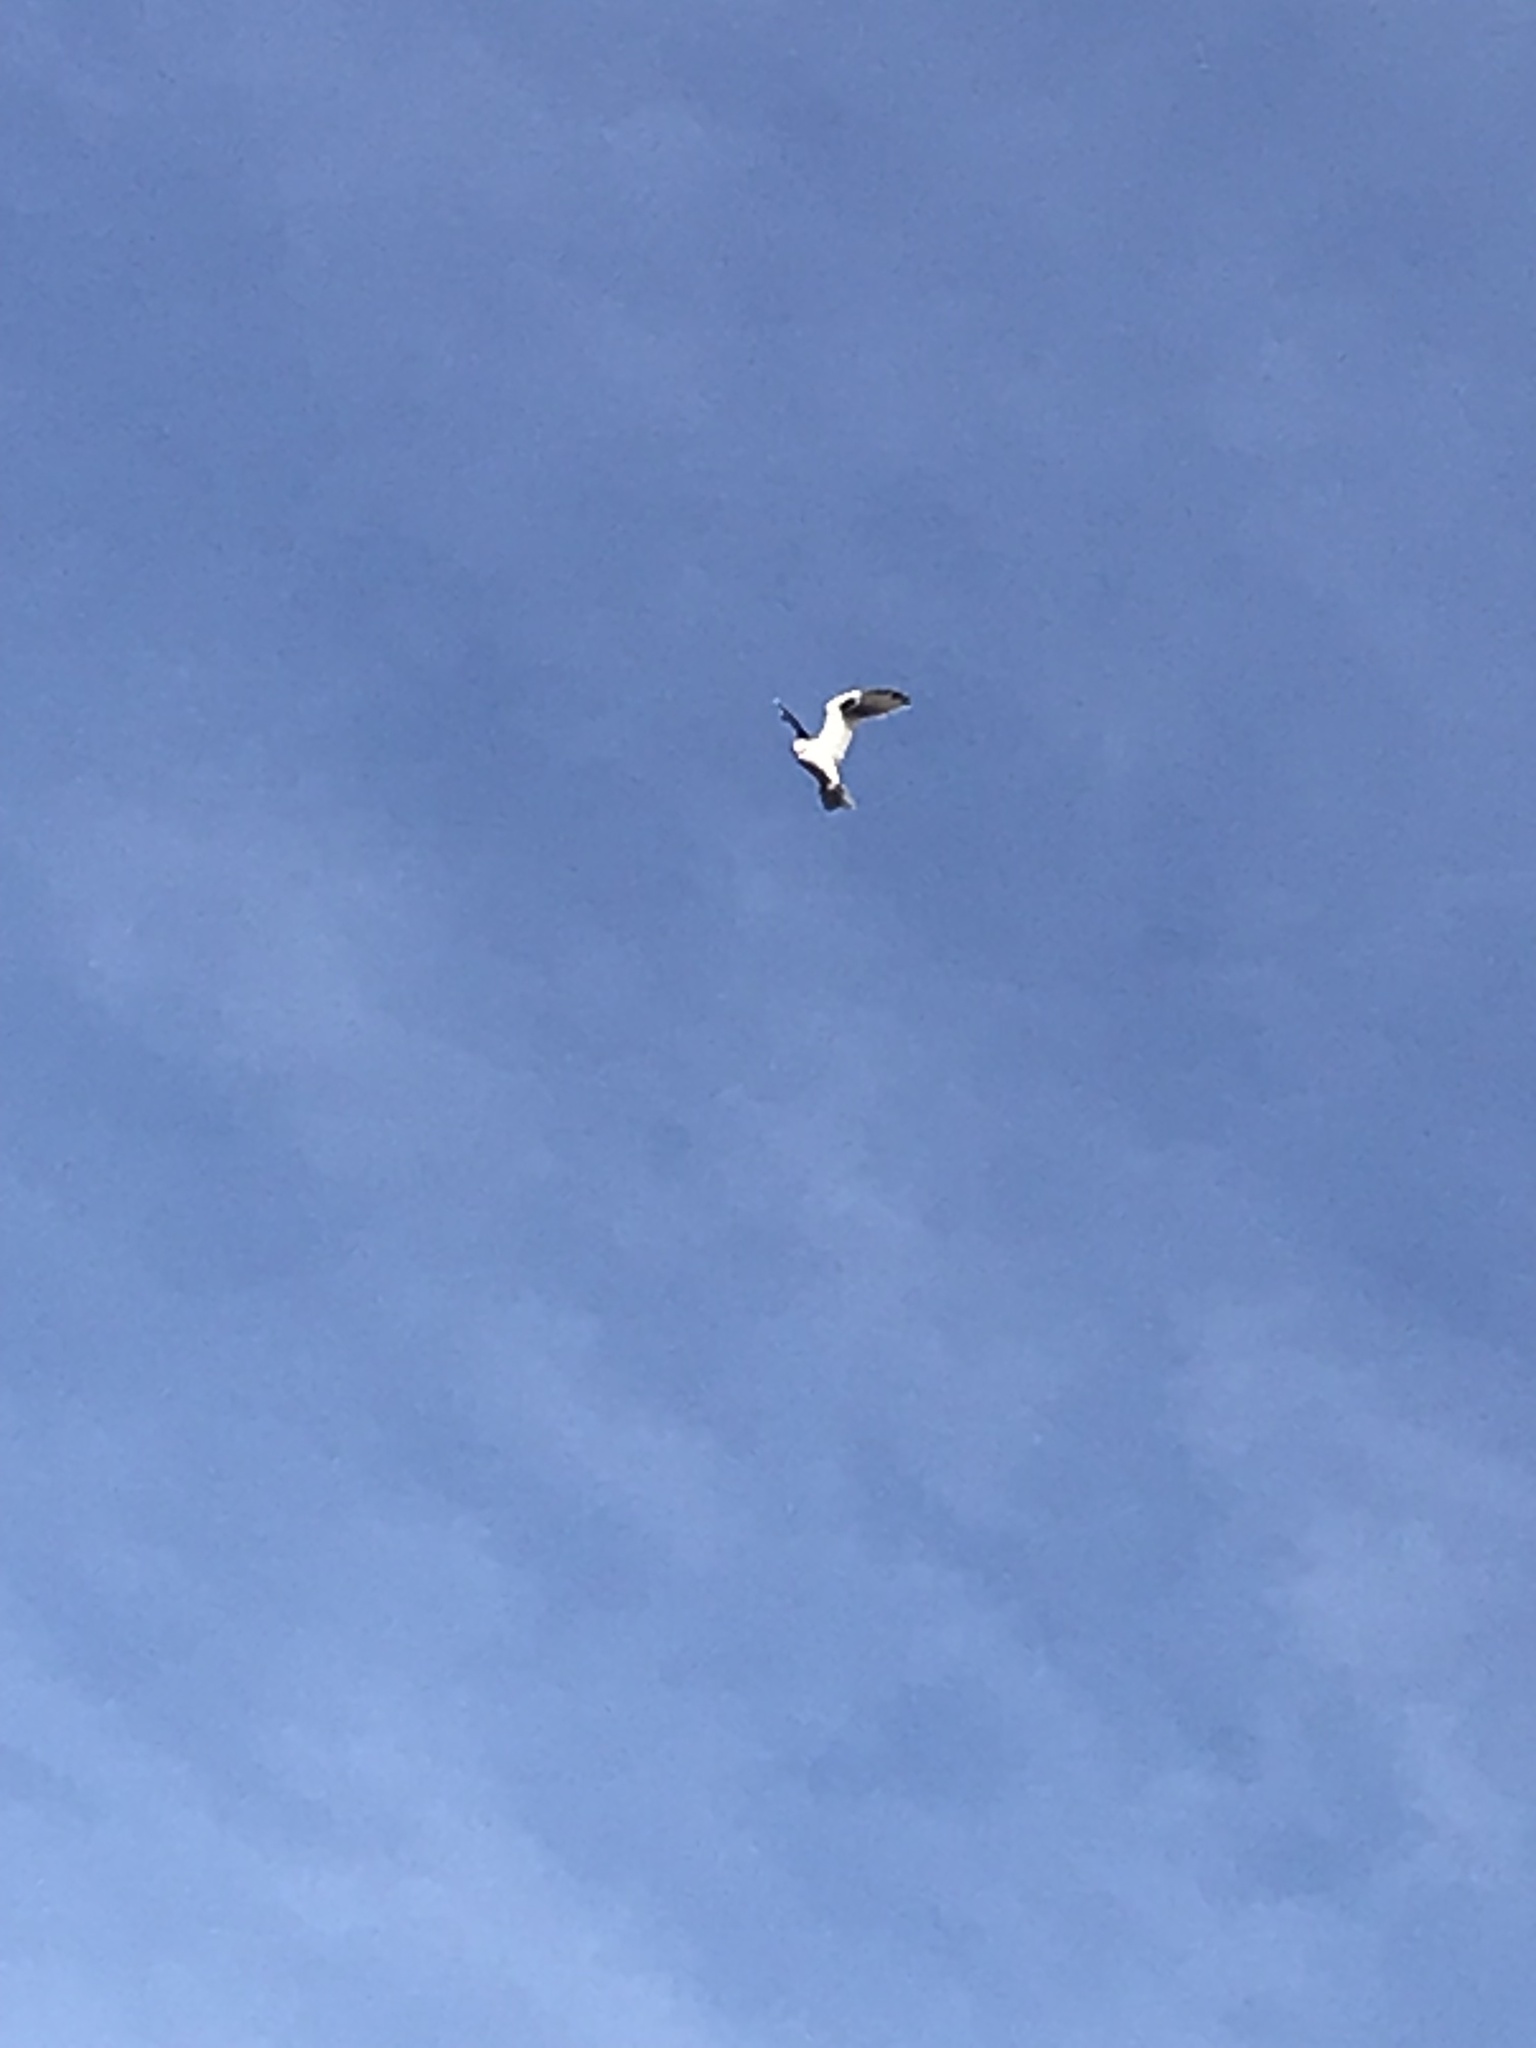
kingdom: Animalia
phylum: Chordata
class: Aves
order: Accipitriformes
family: Accipitridae
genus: Elanus
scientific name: Elanus leucurus
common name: White-tailed kite
